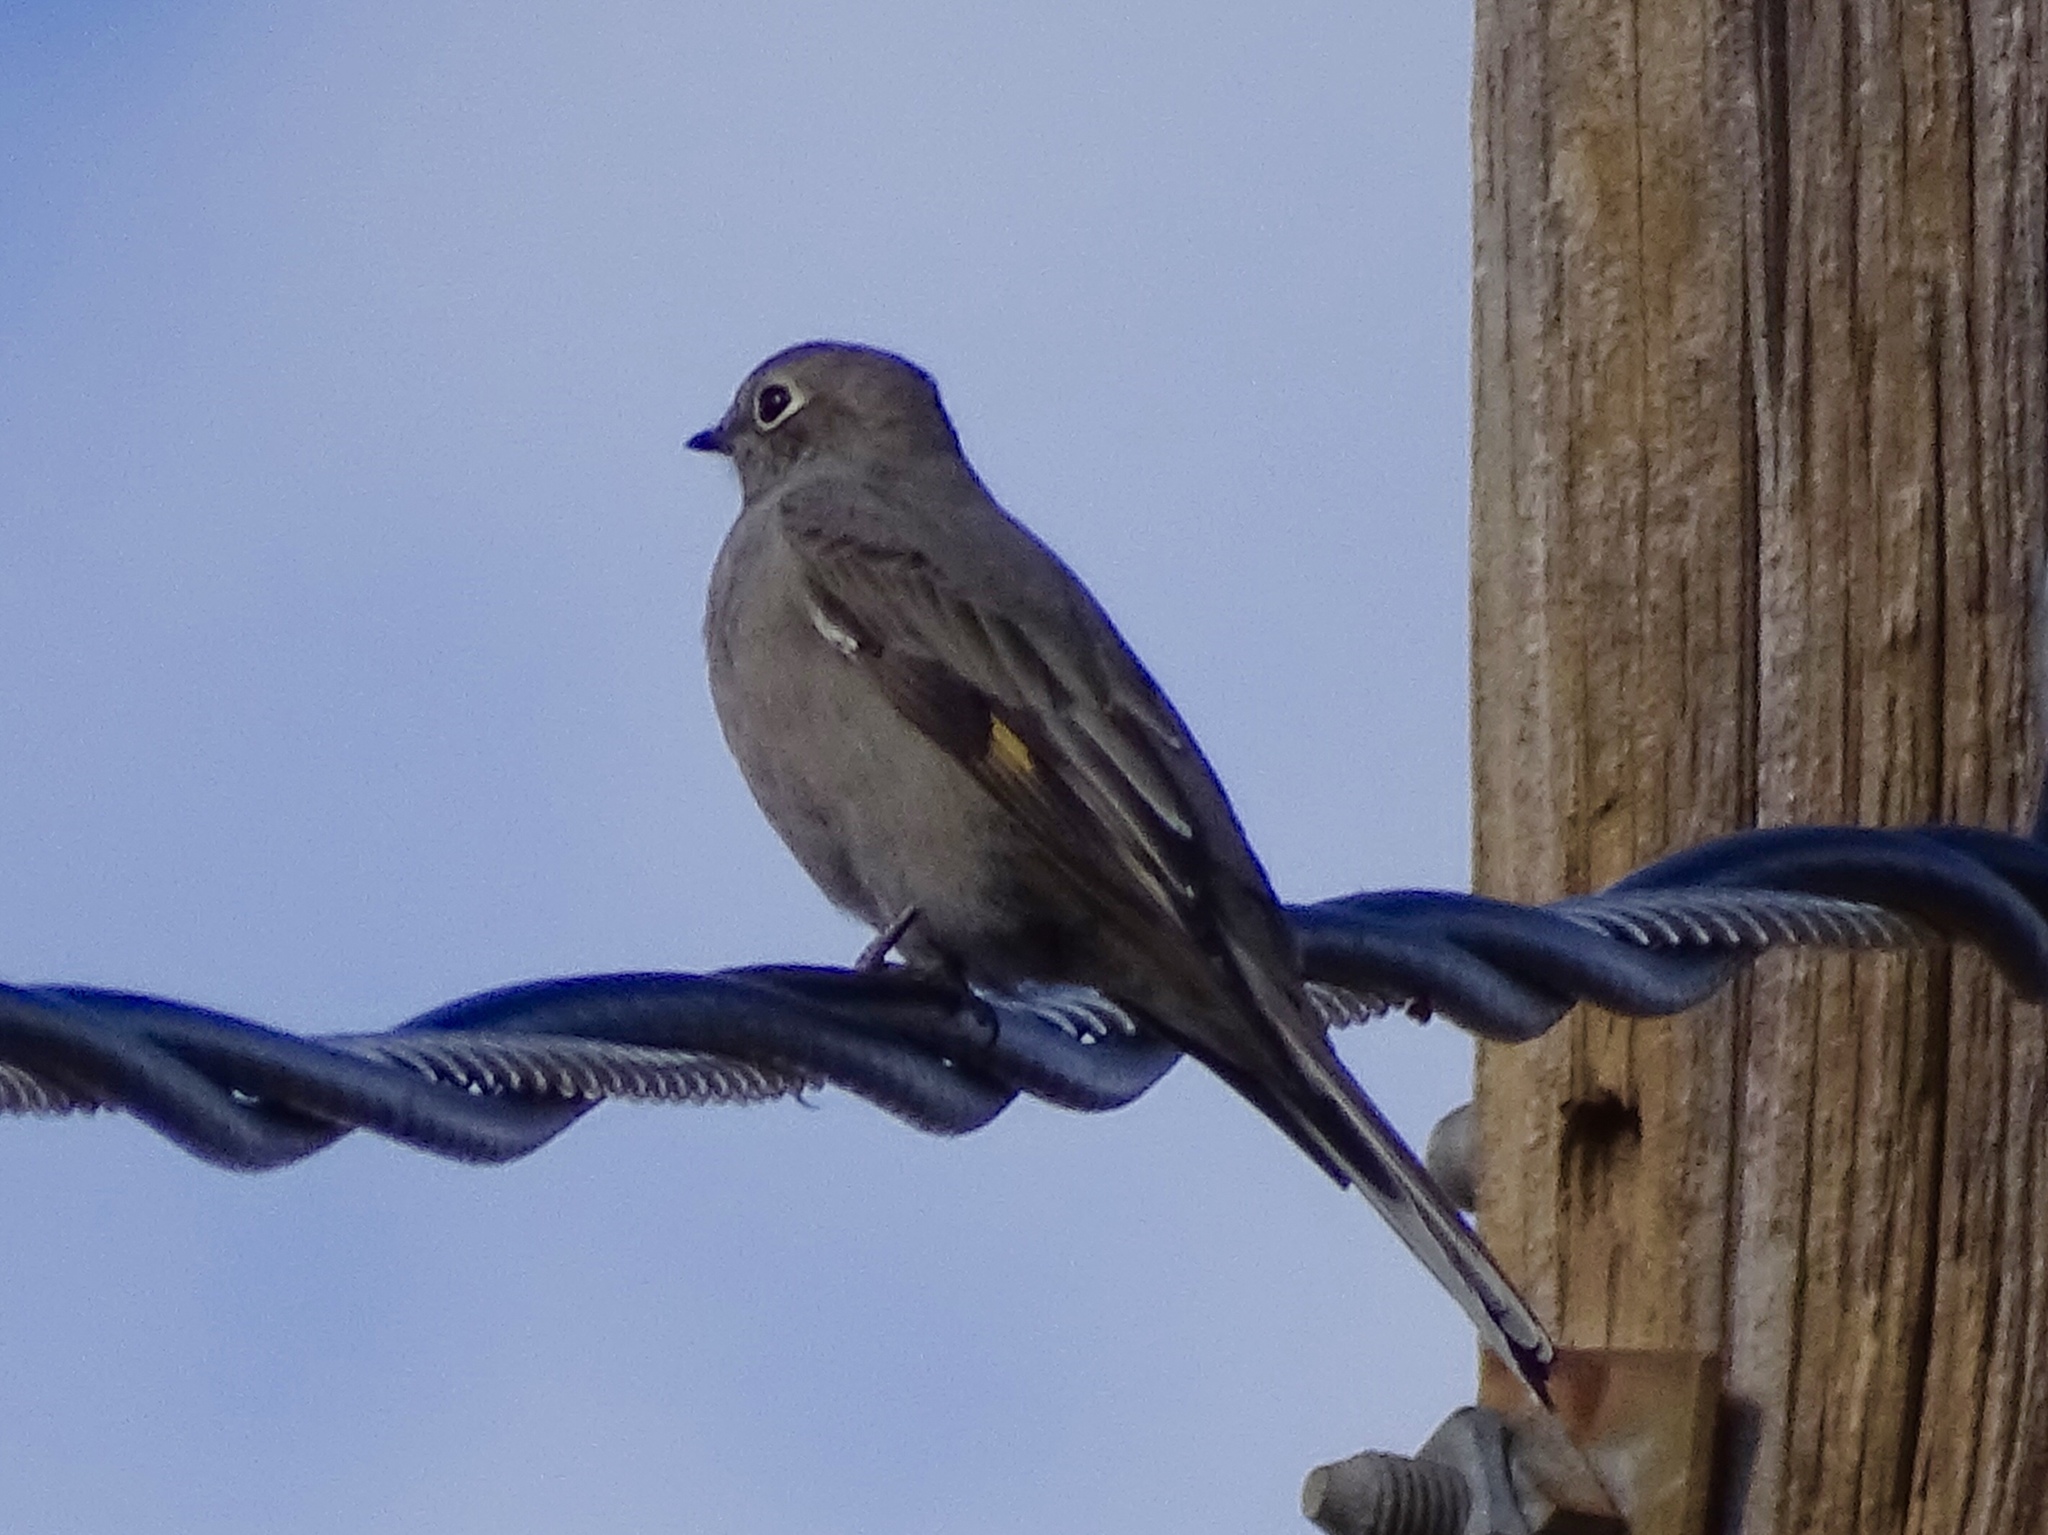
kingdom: Animalia
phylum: Chordata
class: Aves
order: Passeriformes
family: Turdidae
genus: Myadestes
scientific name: Myadestes townsendi
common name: Townsend's solitaire
